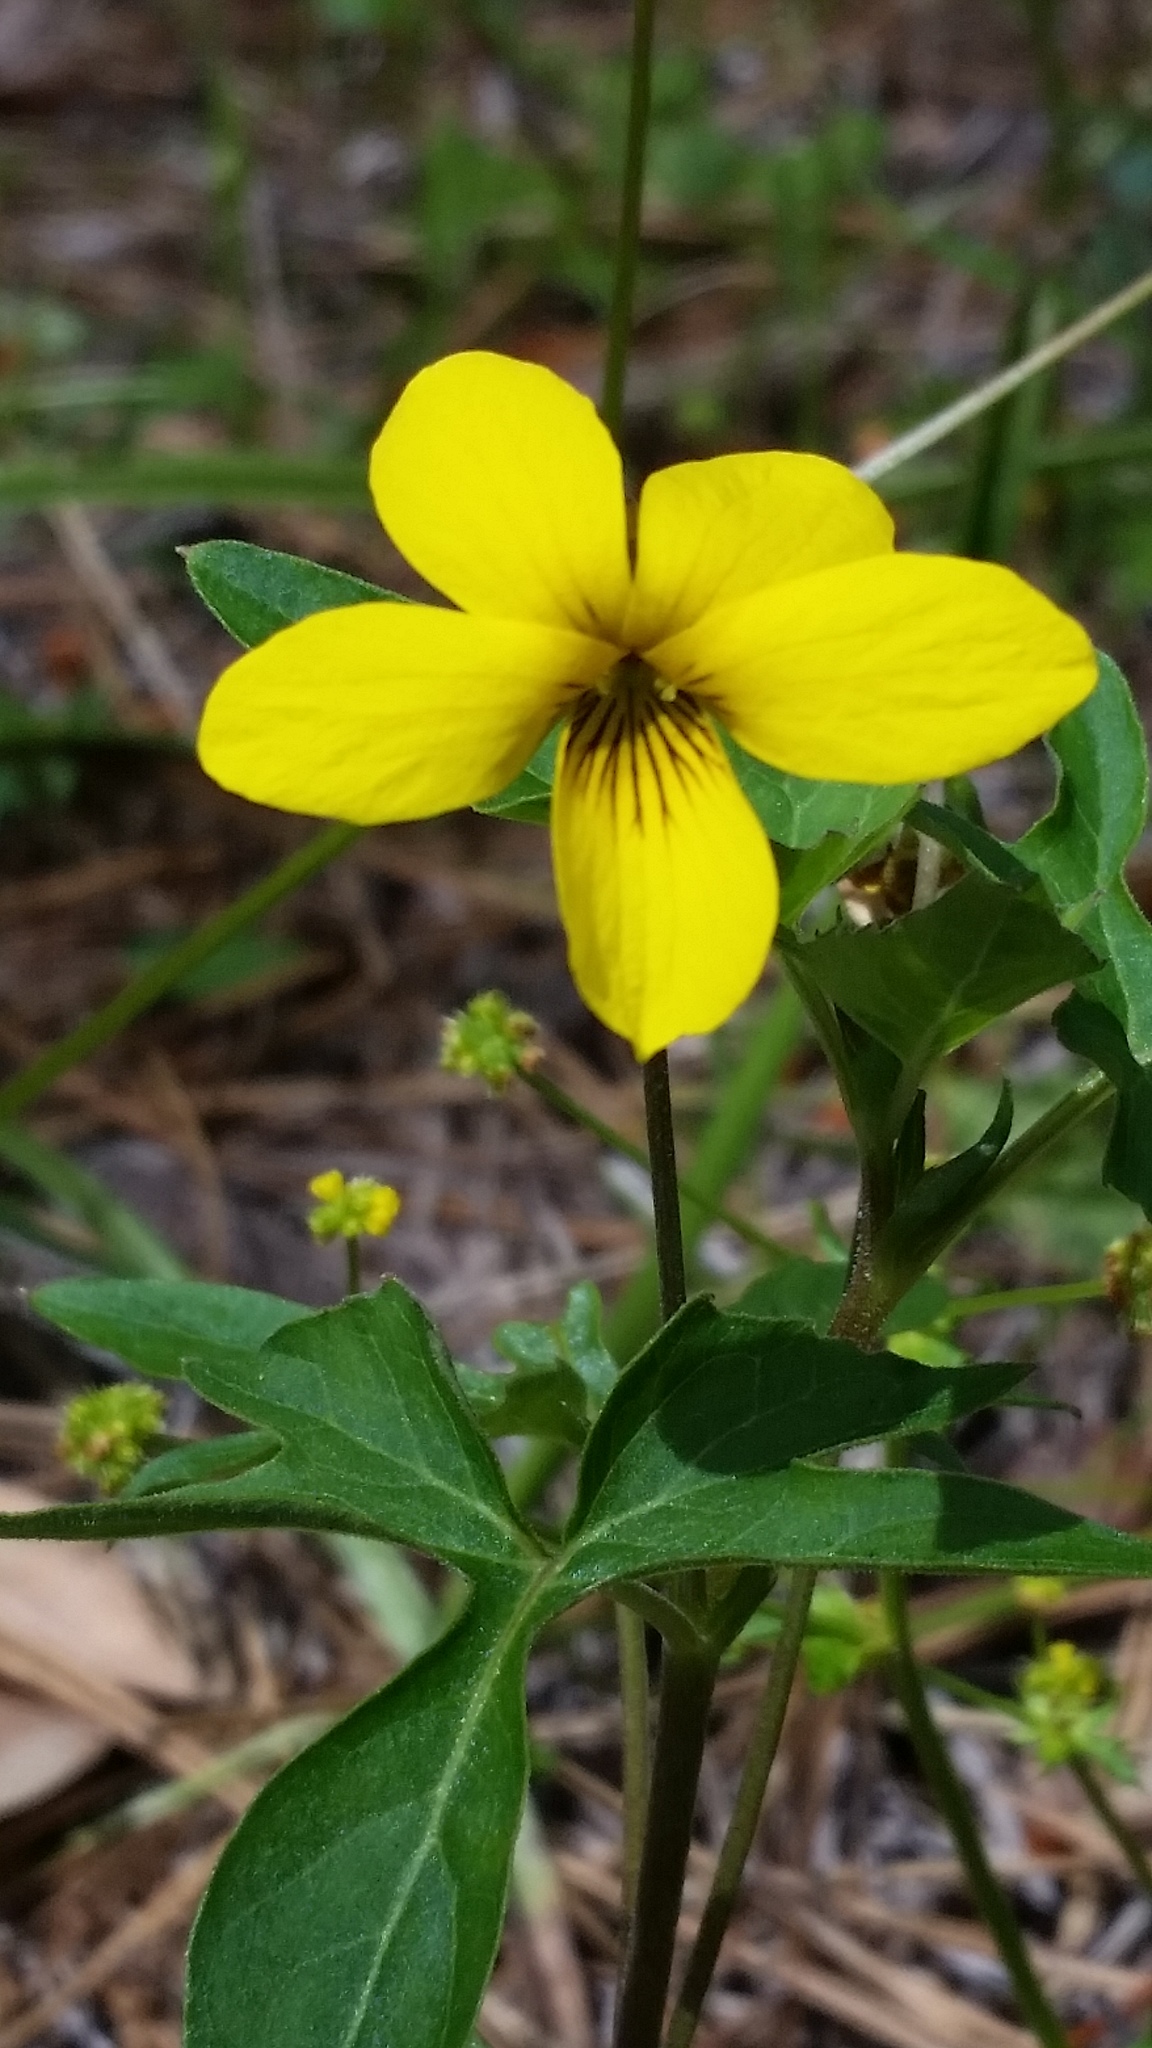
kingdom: Plantae
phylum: Tracheophyta
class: Magnoliopsida
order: Malpighiales
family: Violaceae
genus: Viola
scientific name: Viola lobata
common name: Pine violet
